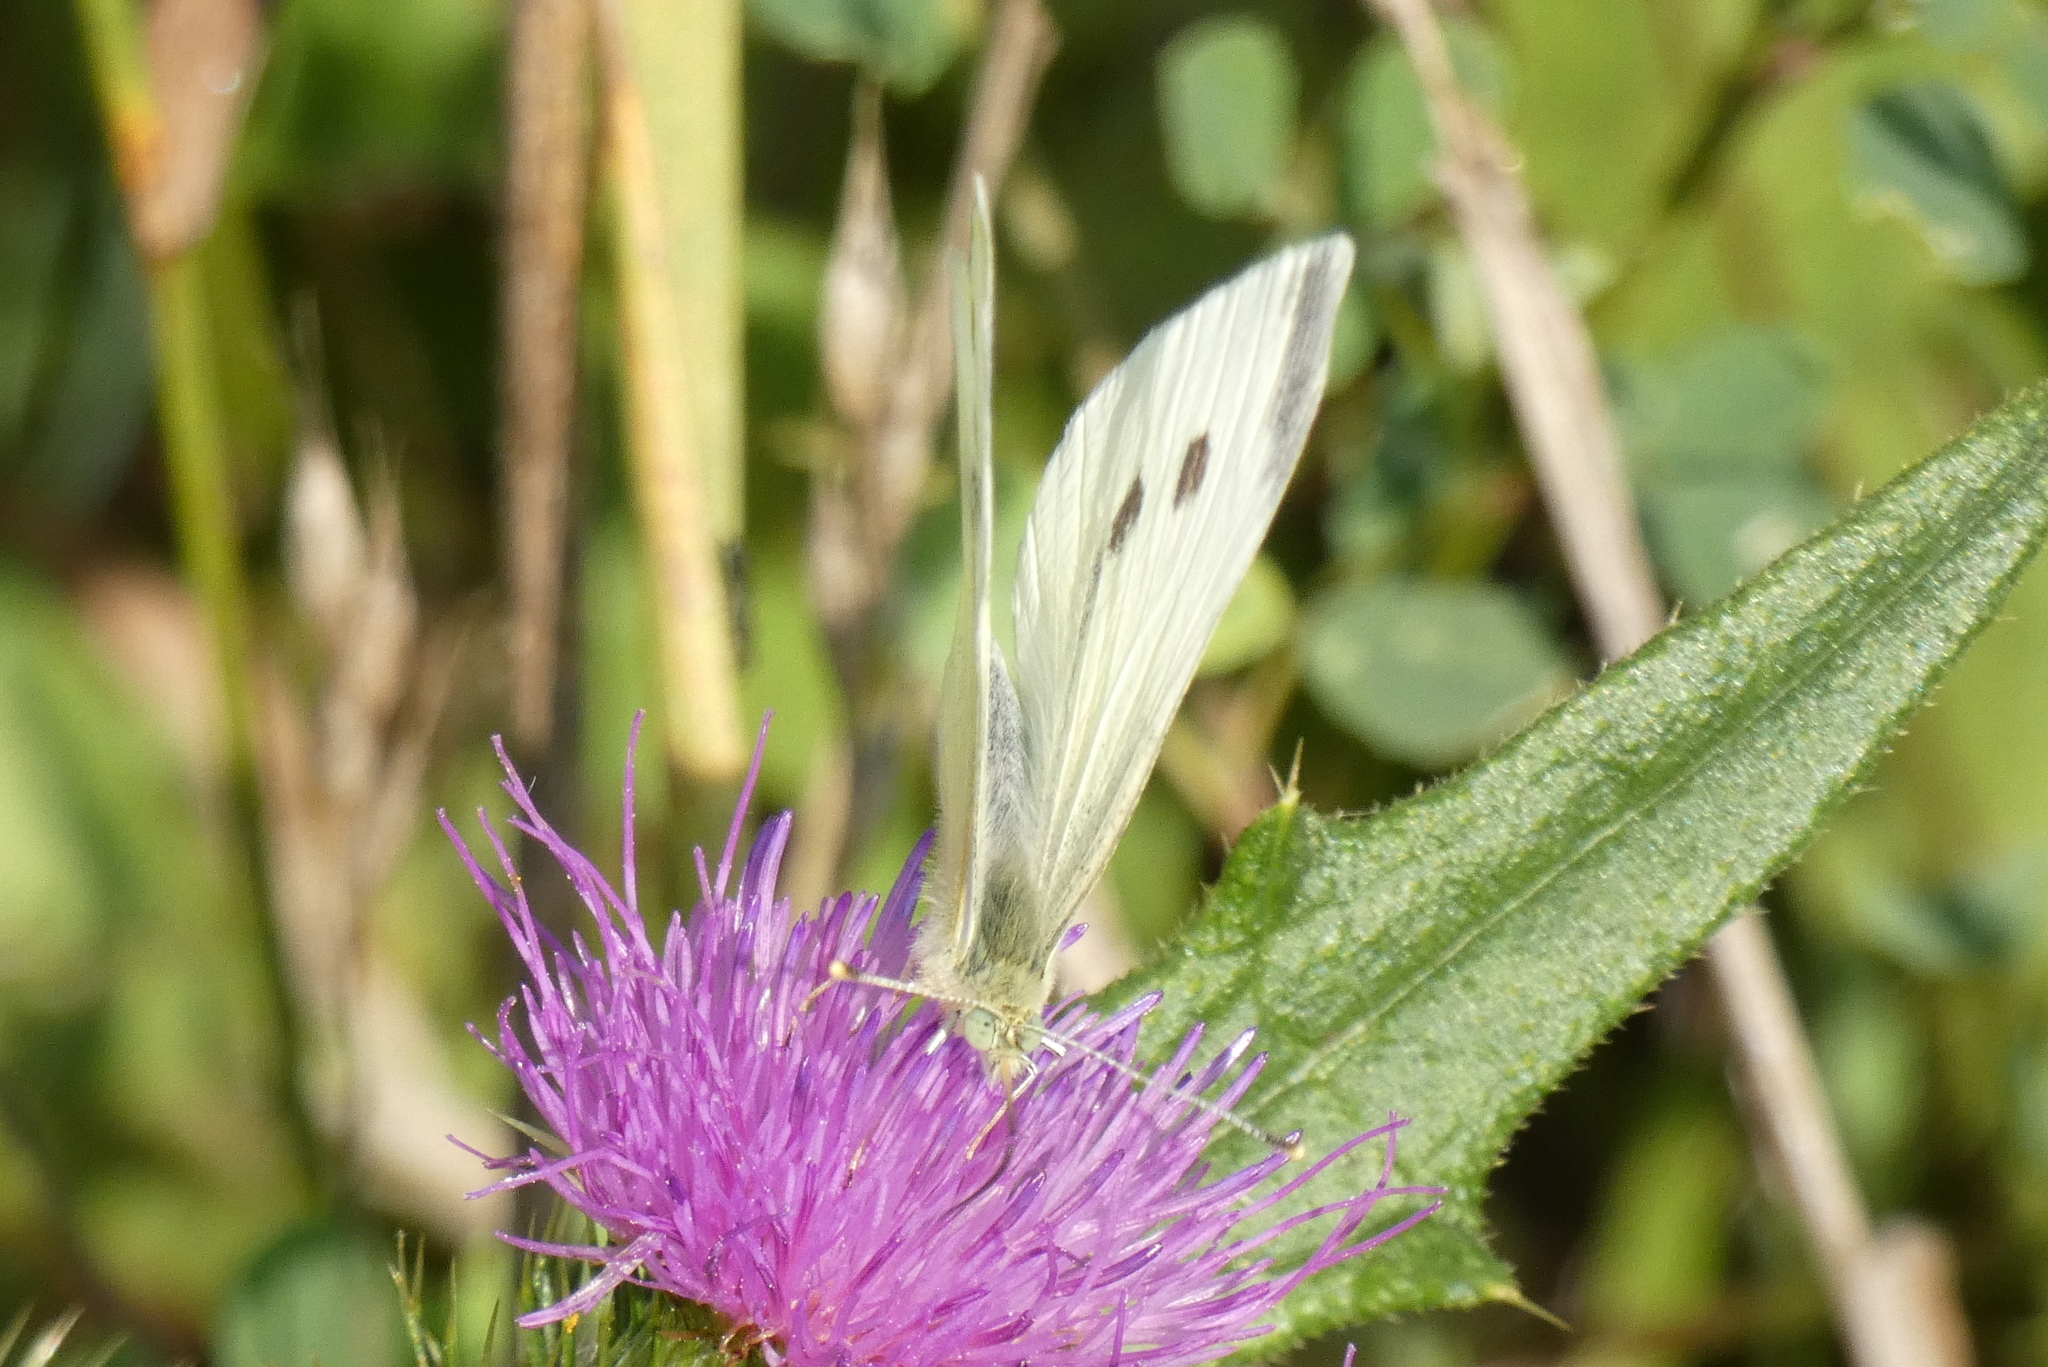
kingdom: Animalia
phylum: Arthropoda
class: Insecta
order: Lepidoptera
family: Pieridae
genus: Pieris
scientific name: Pieris rapae
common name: Small white
